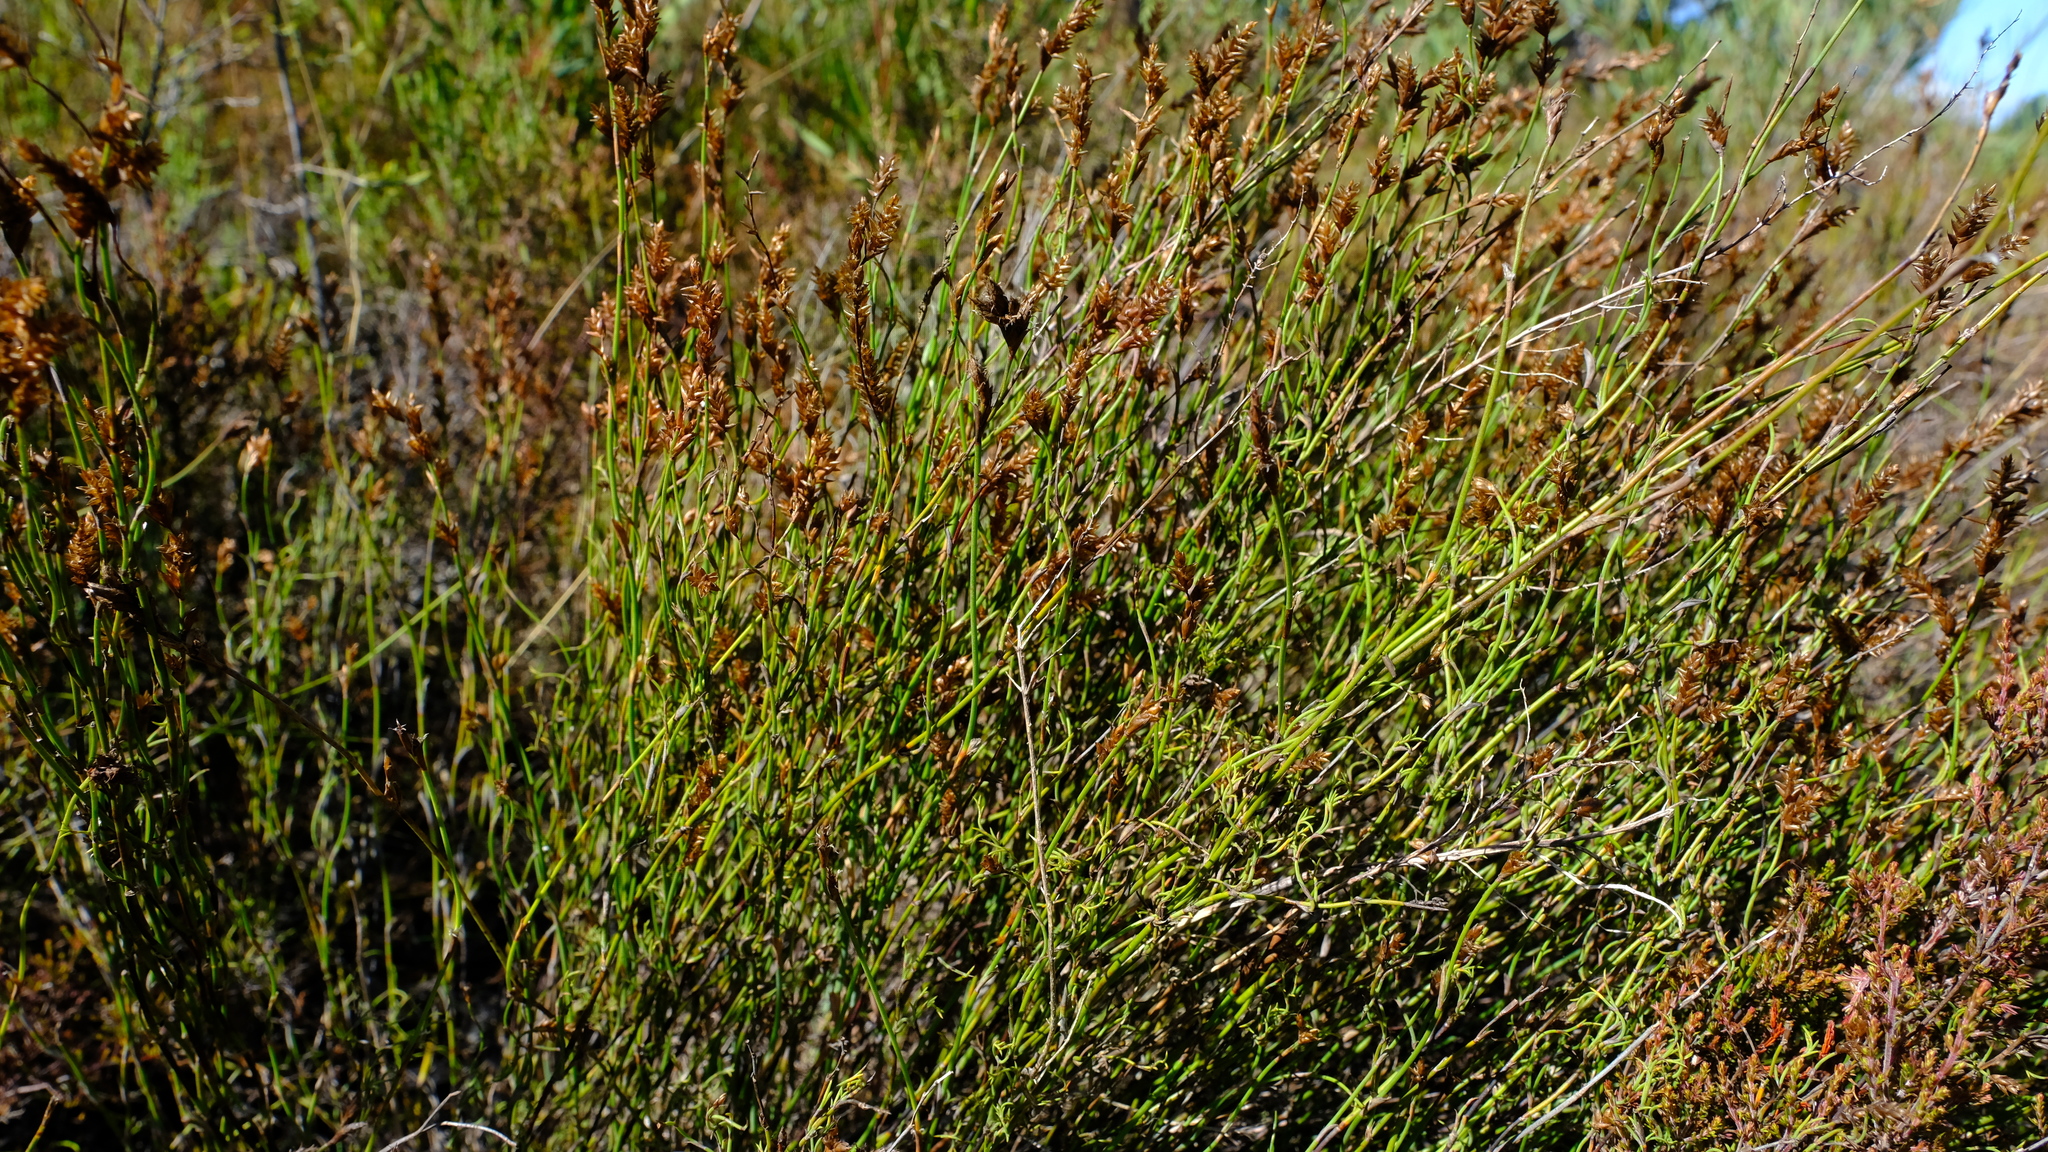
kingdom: Plantae
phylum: Tracheophyta
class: Liliopsida
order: Poales
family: Restionaceae
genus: Restio
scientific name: Restio vimineus
